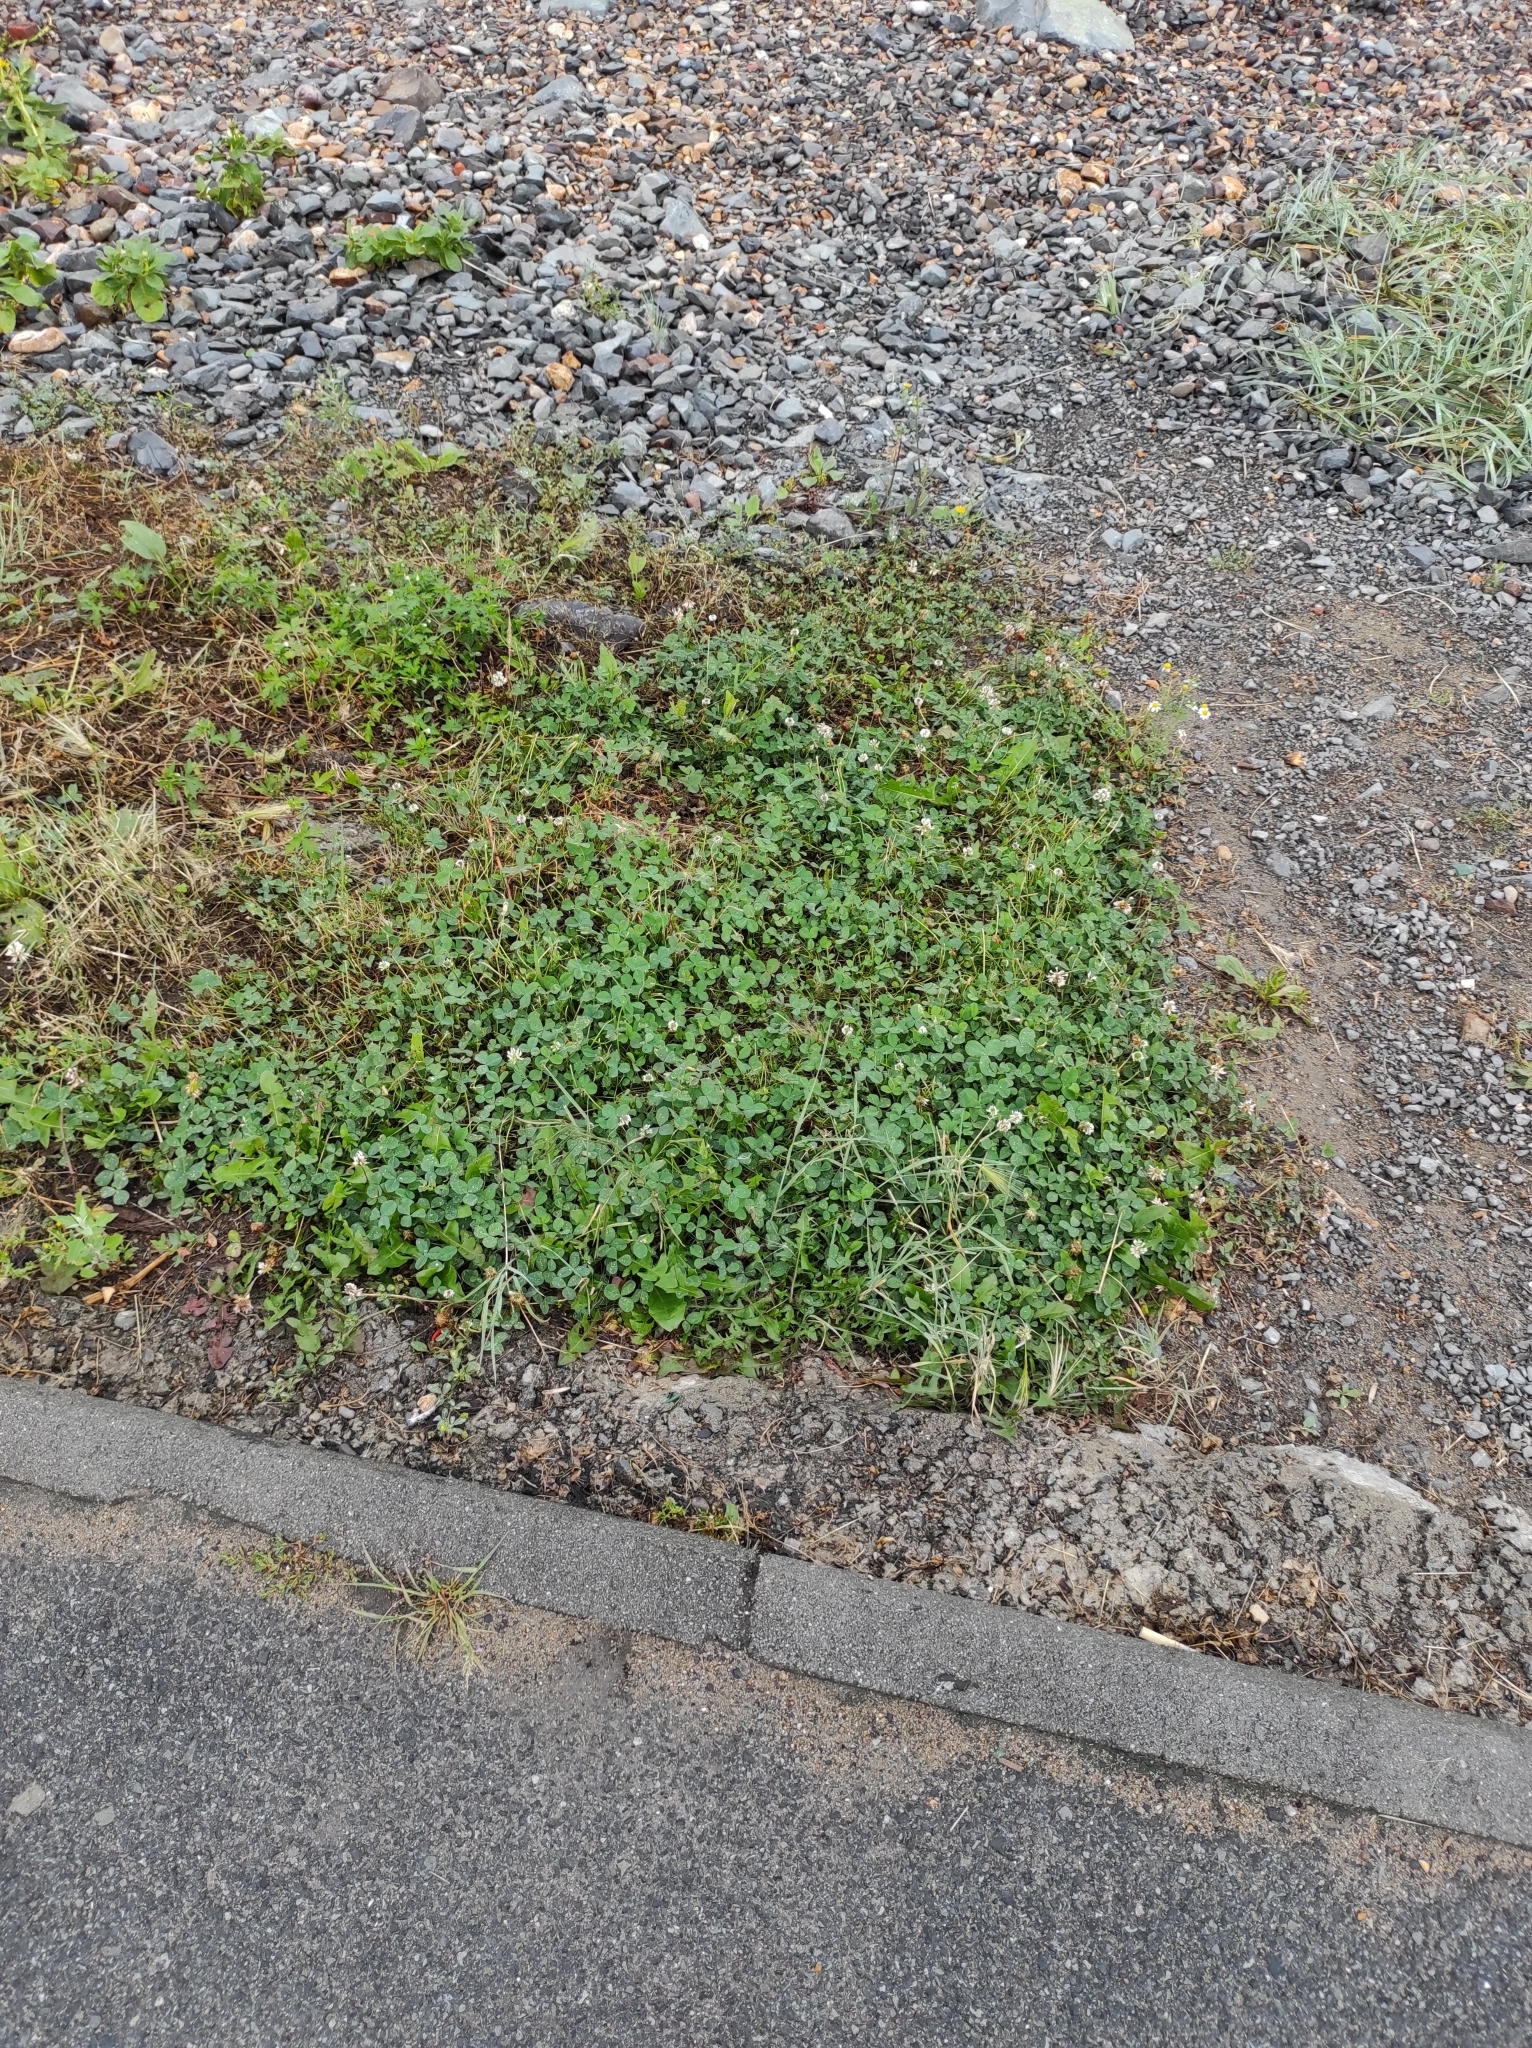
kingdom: Plantae
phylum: Tracheophyta
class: Magnoliopsida
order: Fabales
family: Fabaceae
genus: Trifolium
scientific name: Trifolium repens
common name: White clover
